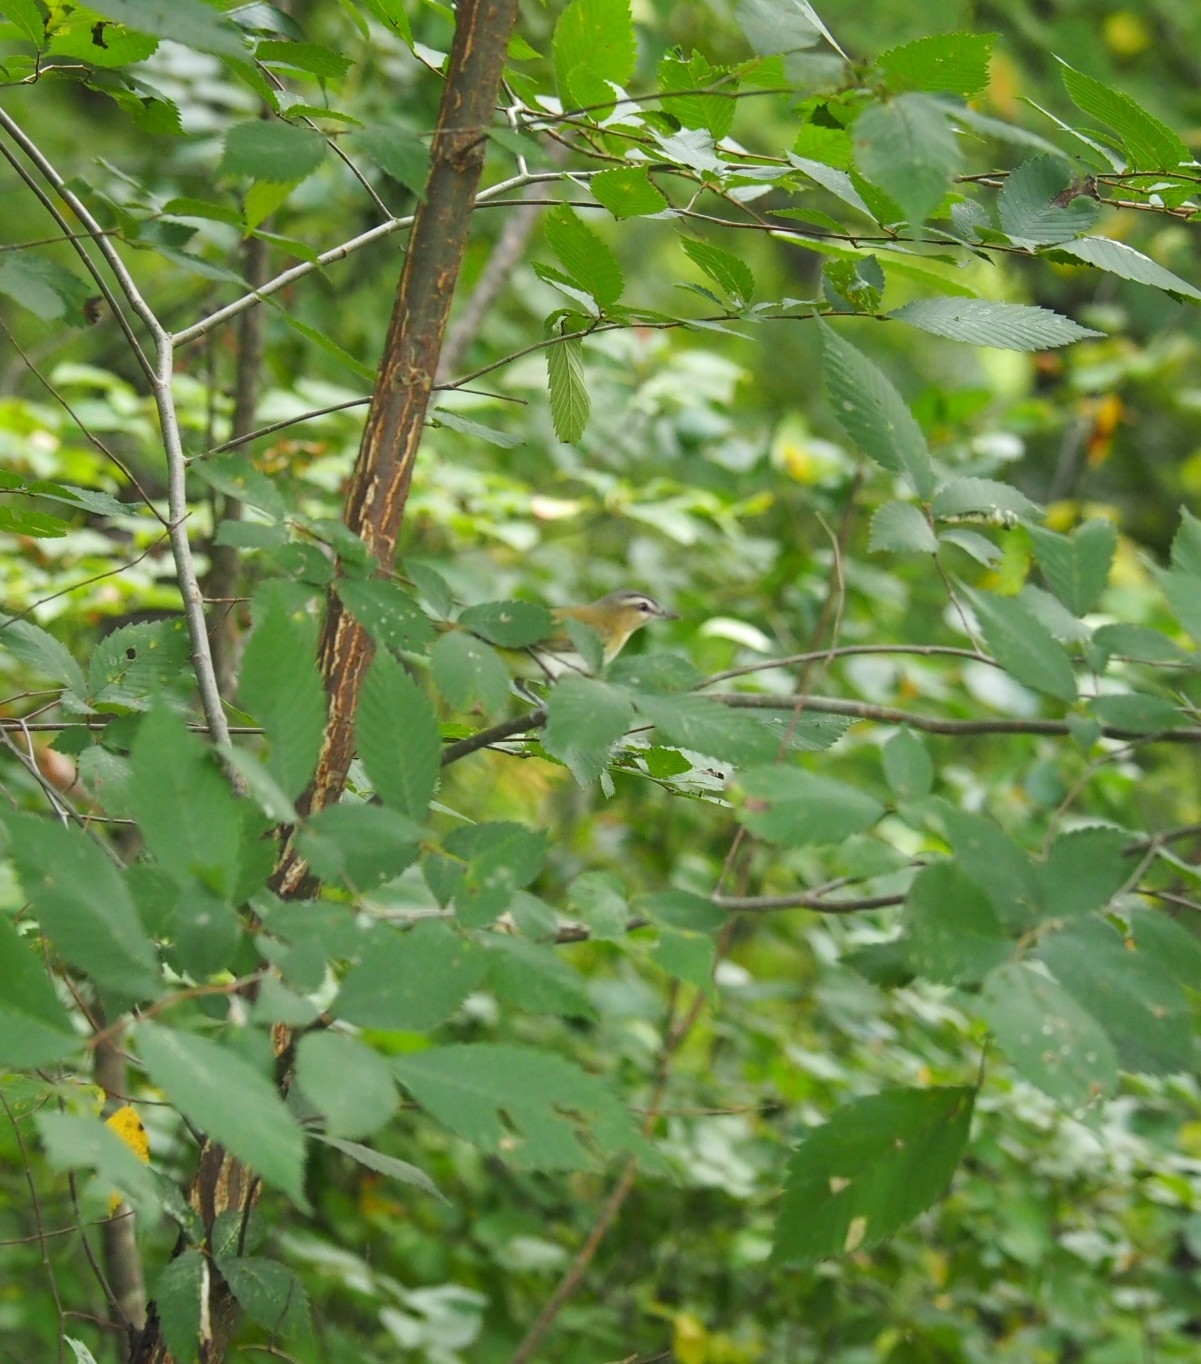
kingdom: Animalia
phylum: Chordata
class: Aves
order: Passeriformes
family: Vireonidae
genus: Vireo
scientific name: Vireo olivaceus
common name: Red-eyed vireo
